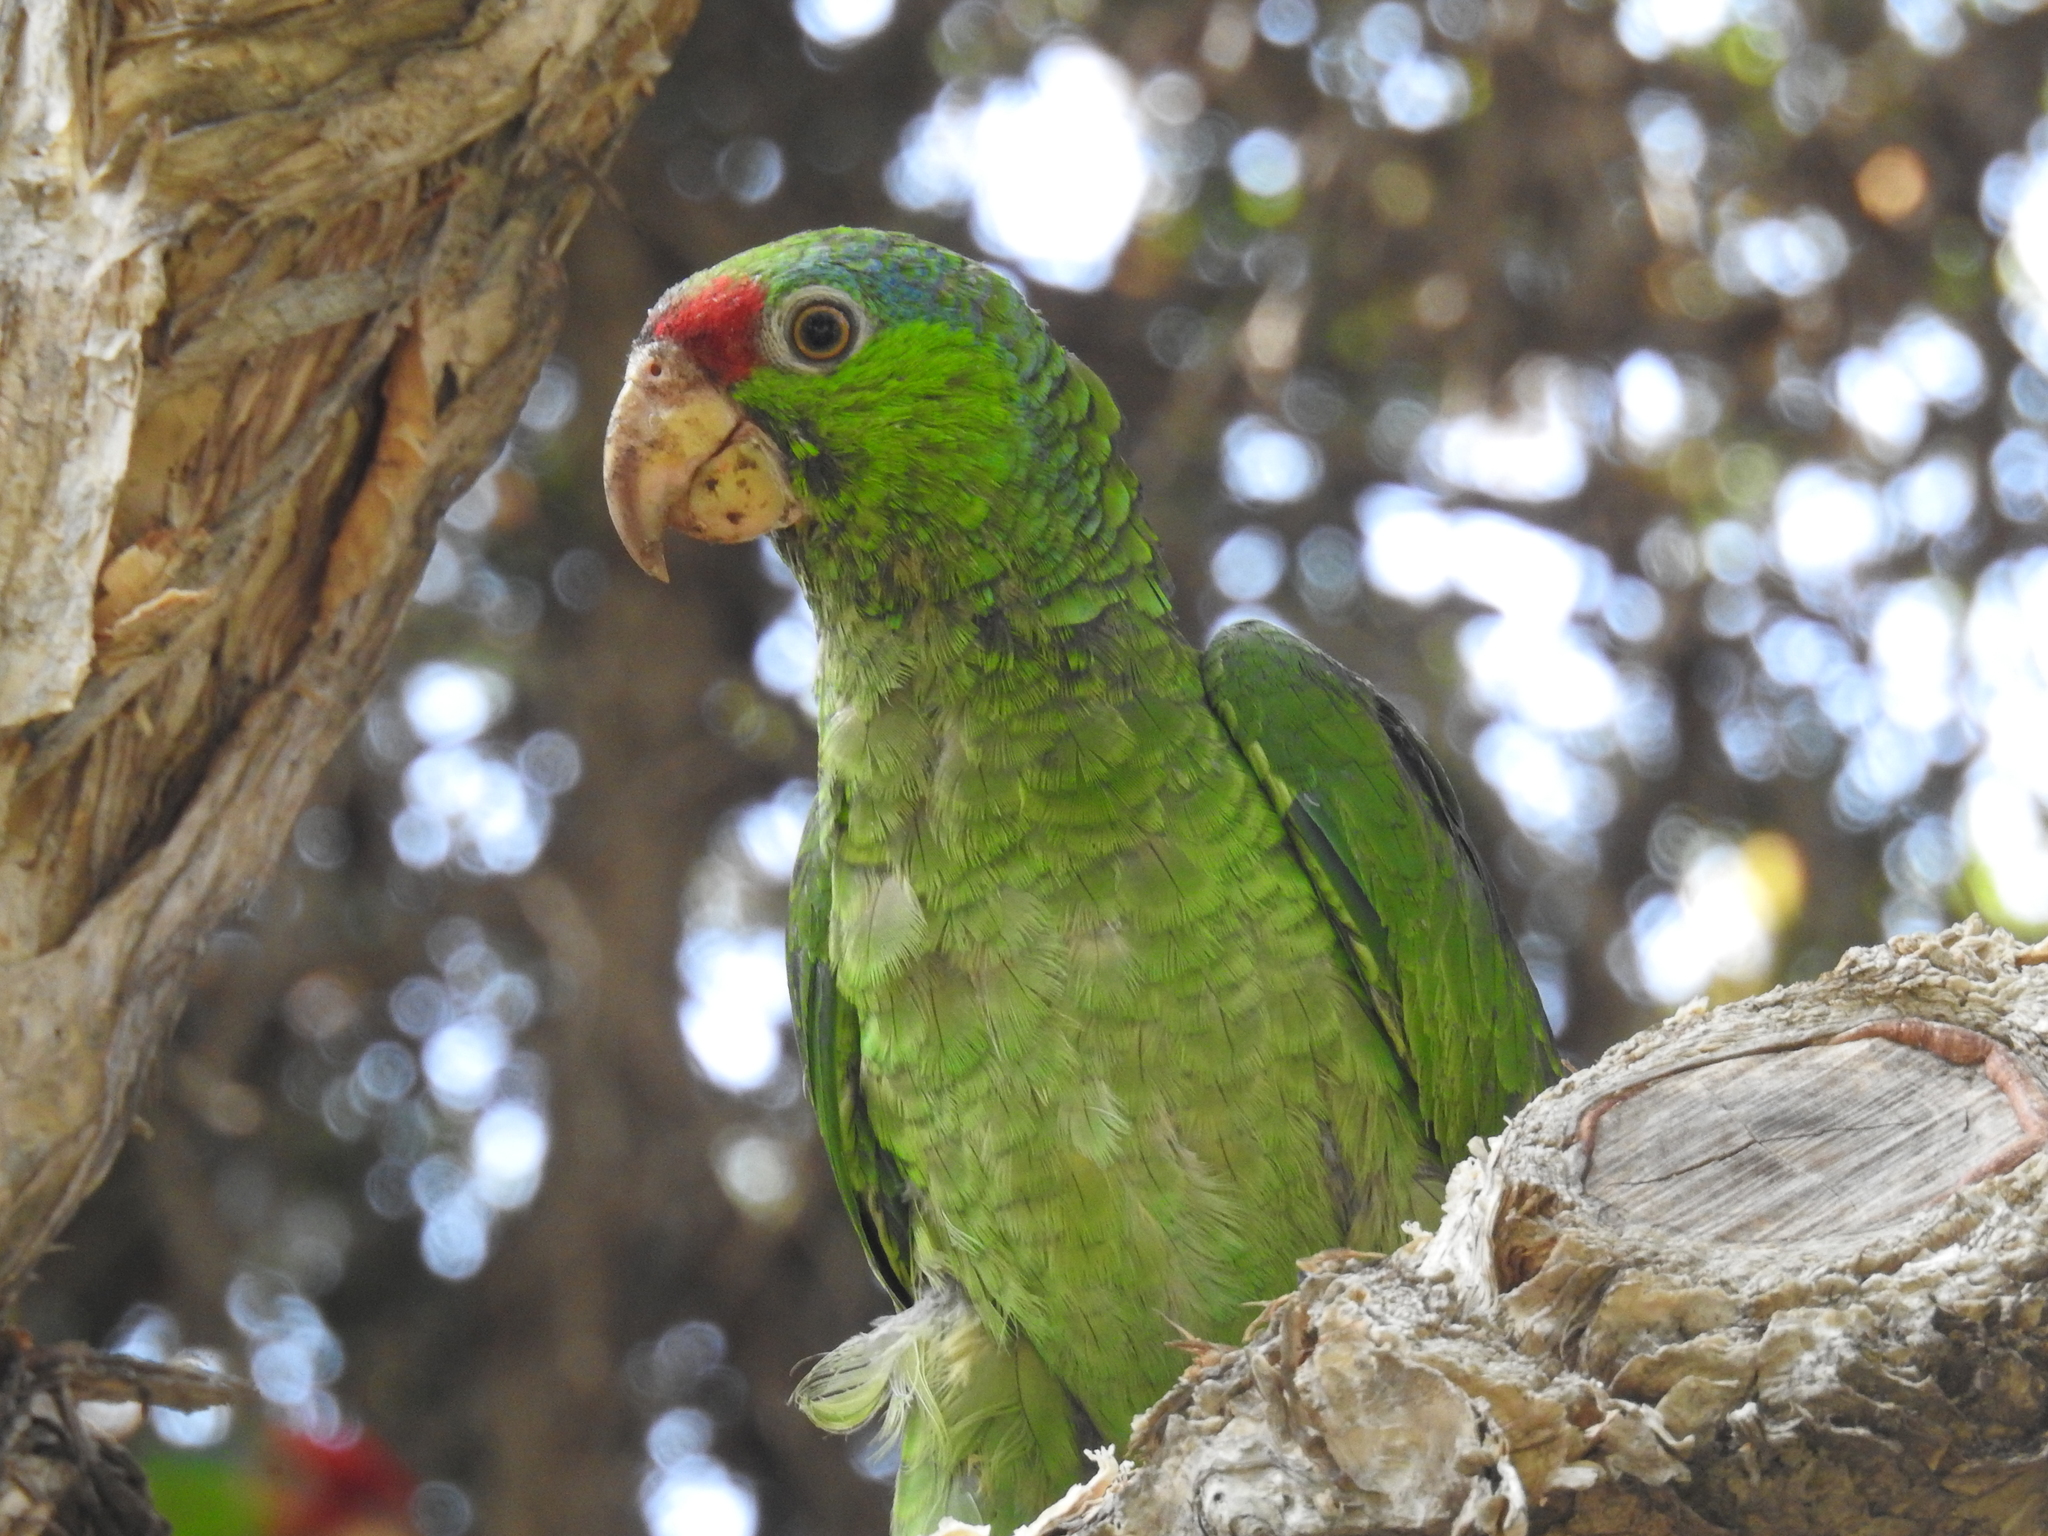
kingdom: Animalia
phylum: Chordata
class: Aves
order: Psittaciformes
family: Psittacidae
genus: Amazona
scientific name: Amazona viridigenalis
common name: Red-crowned amazon
